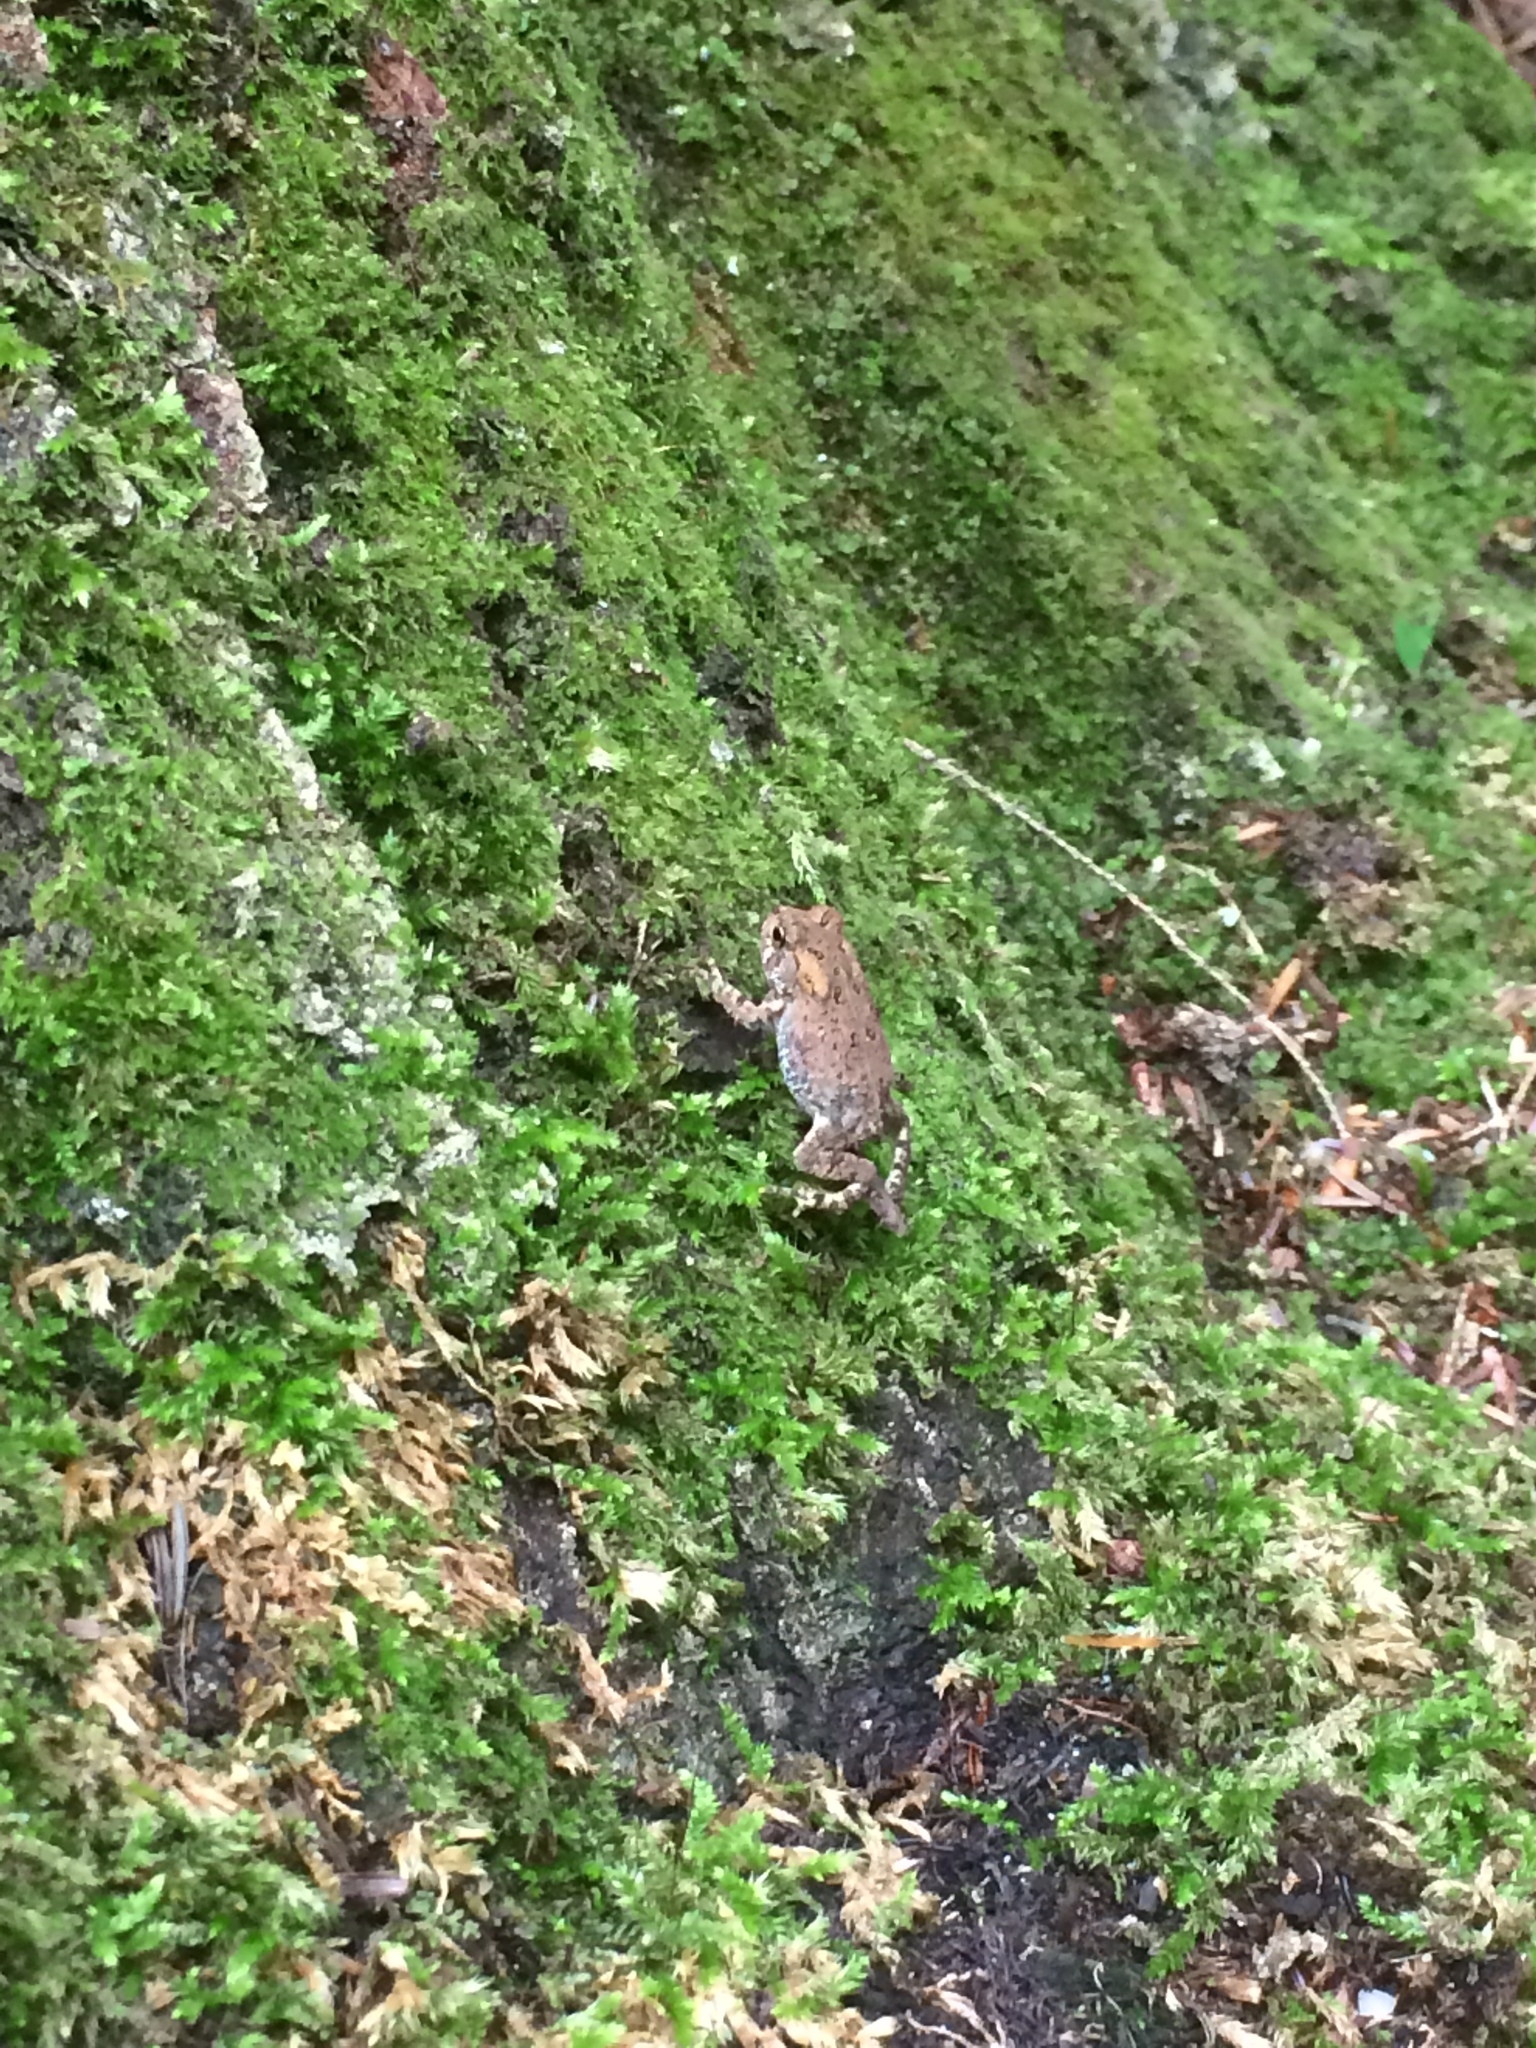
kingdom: Animalia
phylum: Chordata
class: Amphibia
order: Anura
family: Bufonidae
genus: Anaxyrus
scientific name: Anaxyrus americanus
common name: American toad
